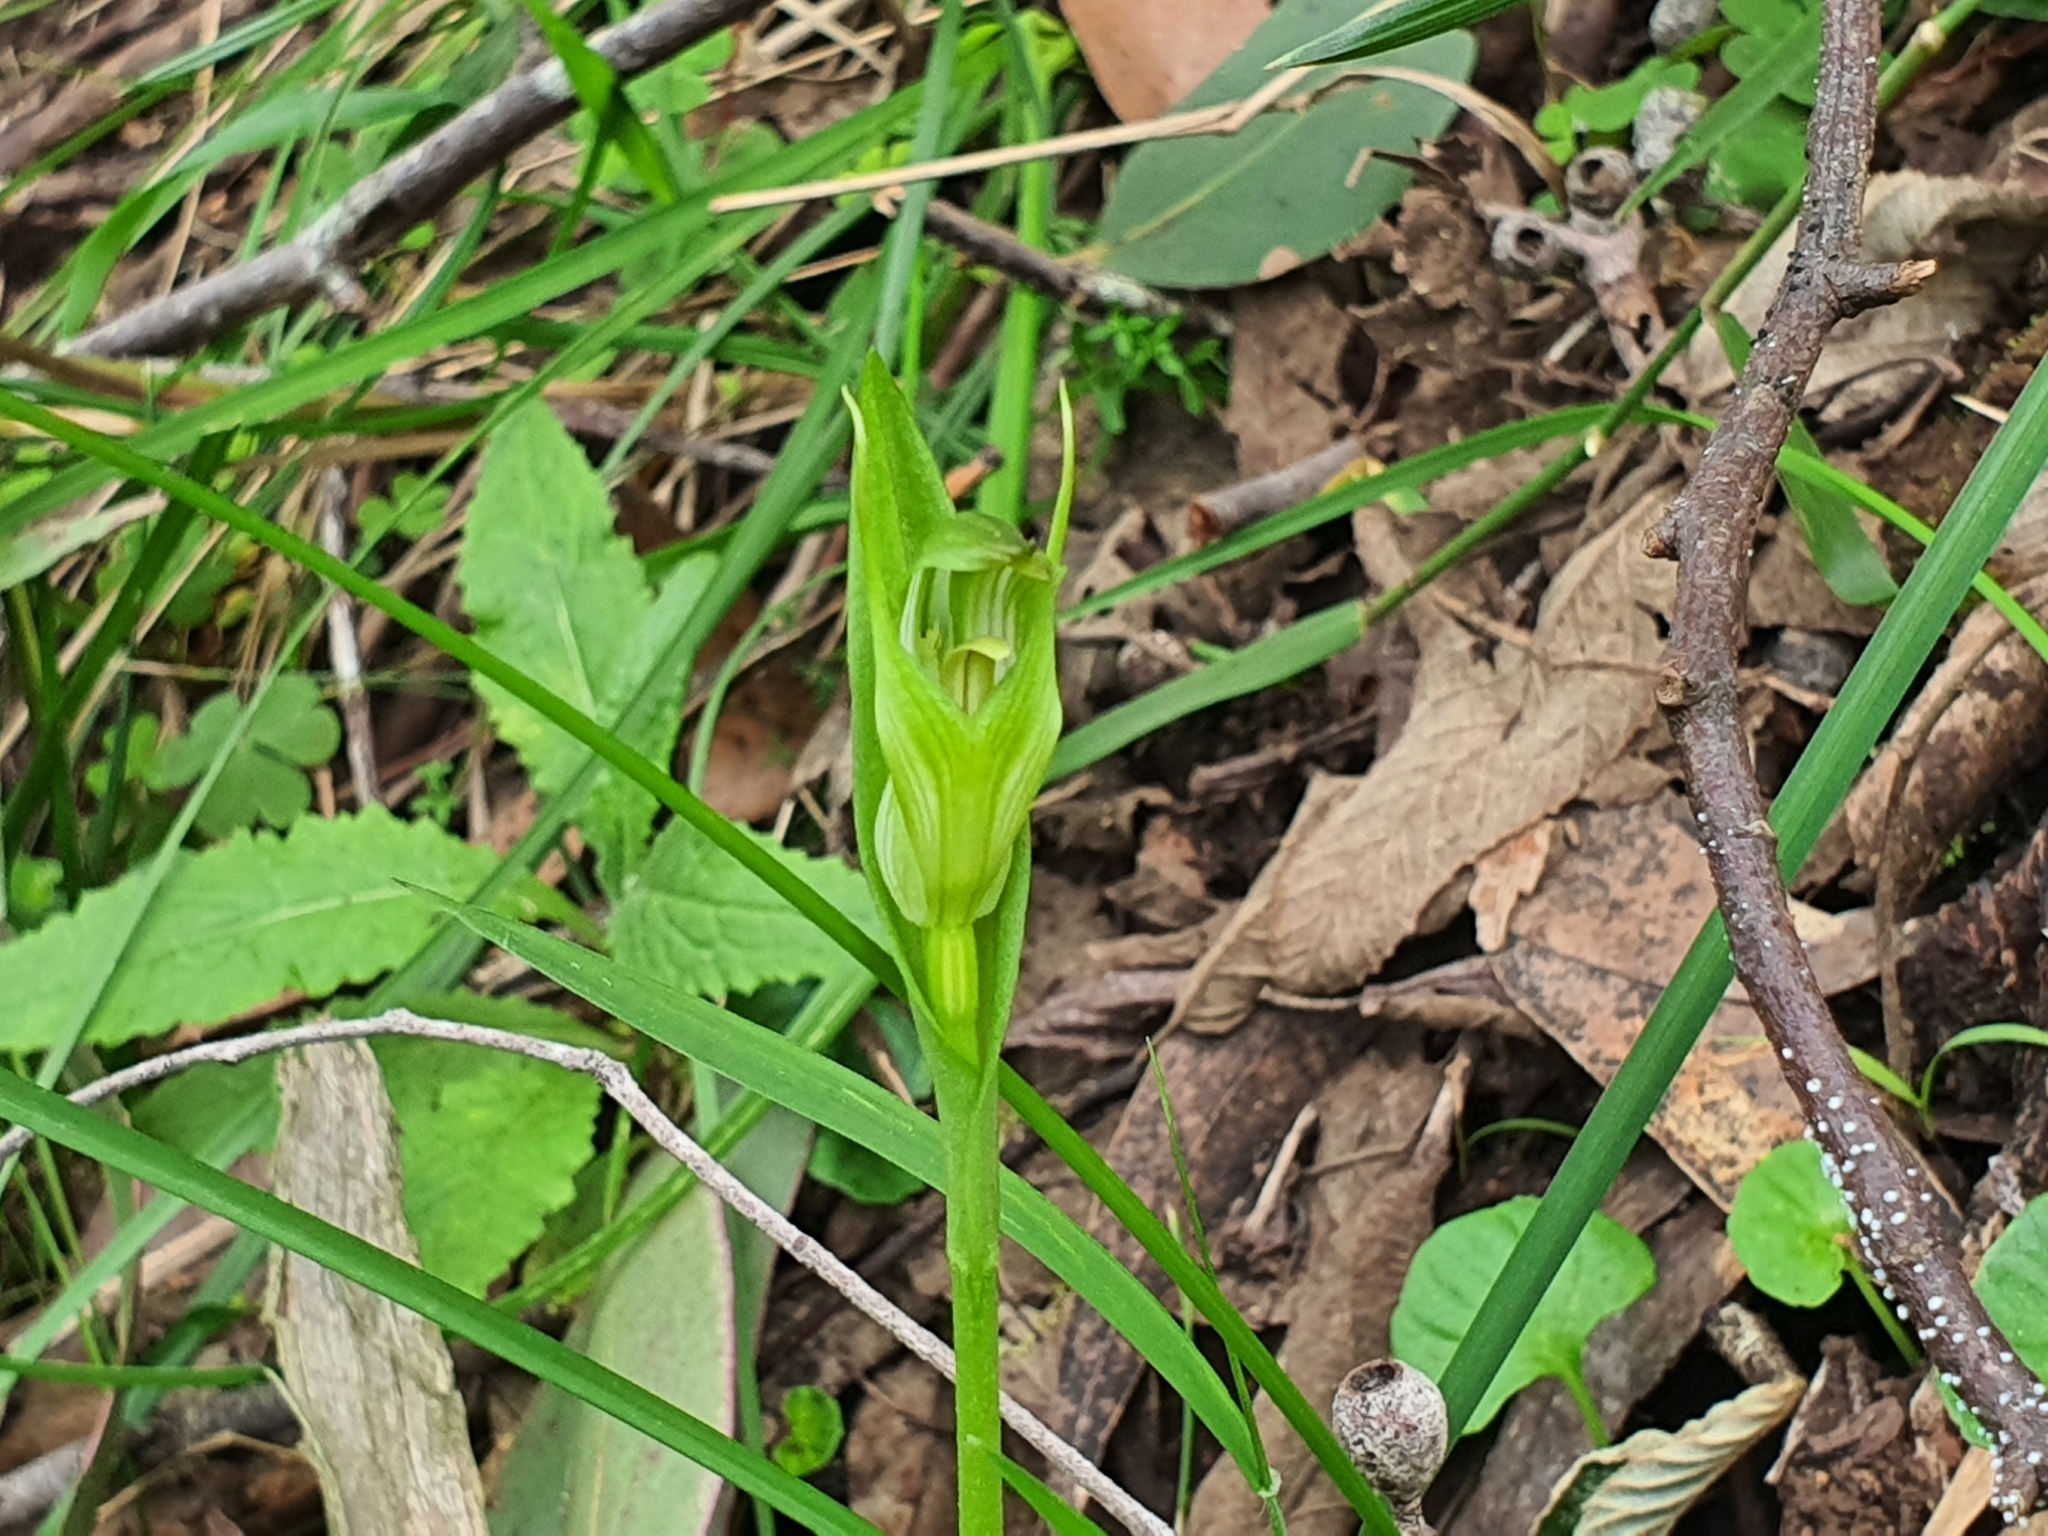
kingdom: Plantae
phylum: Tracheophyta
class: Liliopsida
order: Asparagales
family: Orchidaceae
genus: Pterostylis
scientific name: Pterostylis alpina
